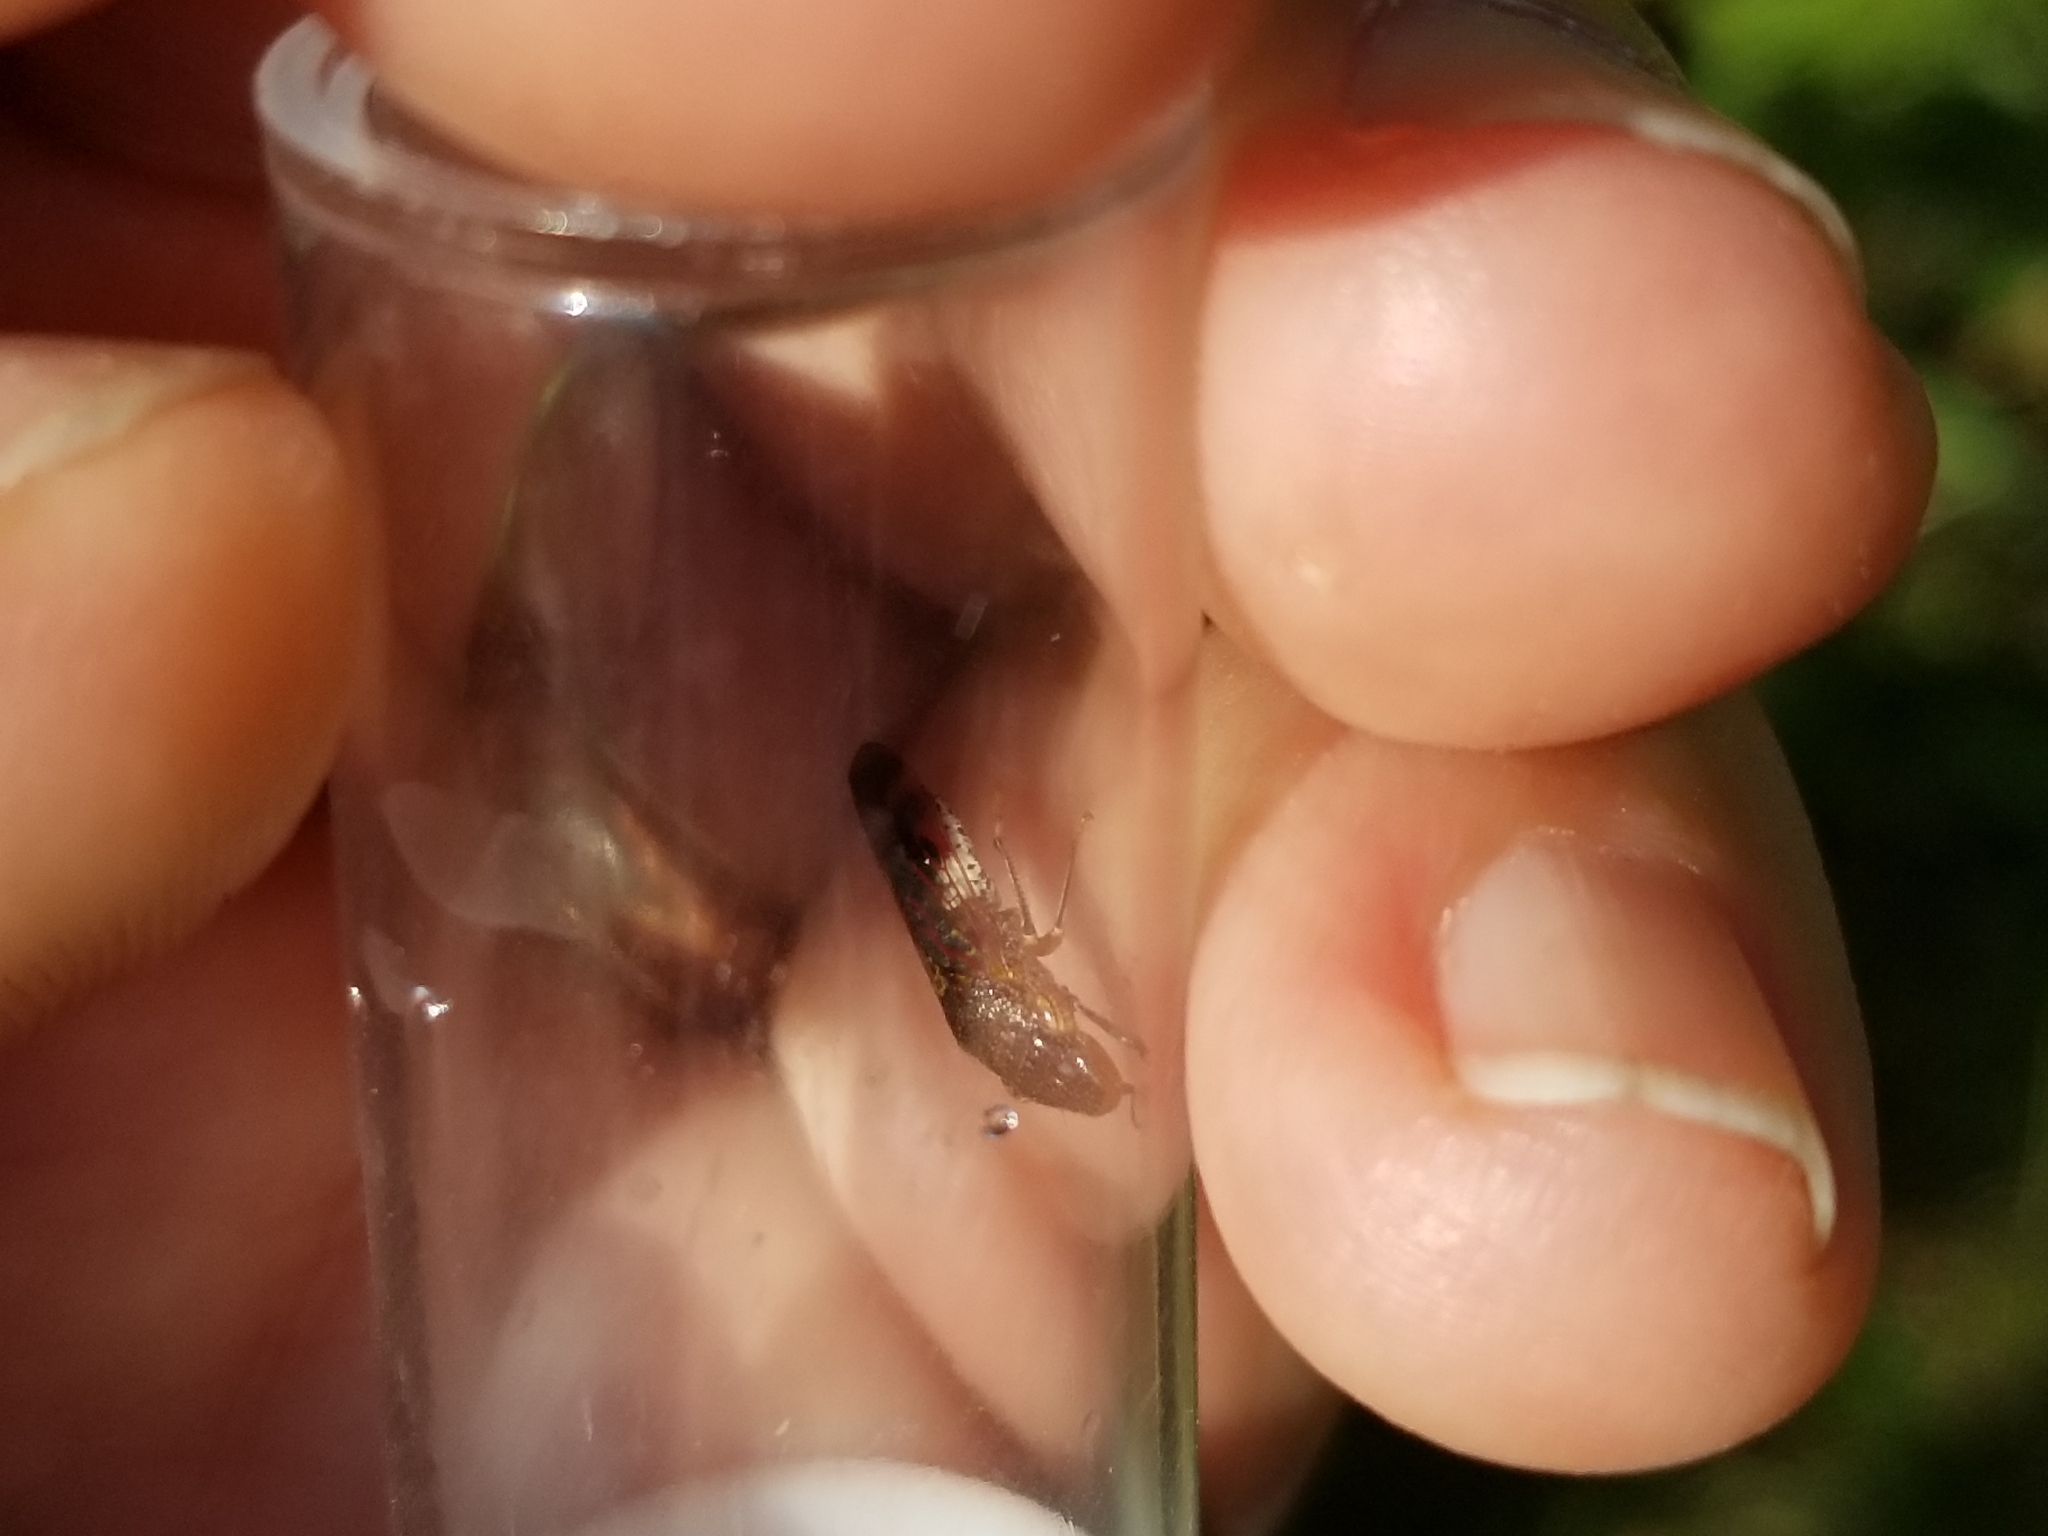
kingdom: Animalia
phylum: Arthropoda
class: Insecta
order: Hemiptera
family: Cicadellidae
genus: Homalodisca
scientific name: Homalodisca vitripennis
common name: Glassy-winged sharpshooter
